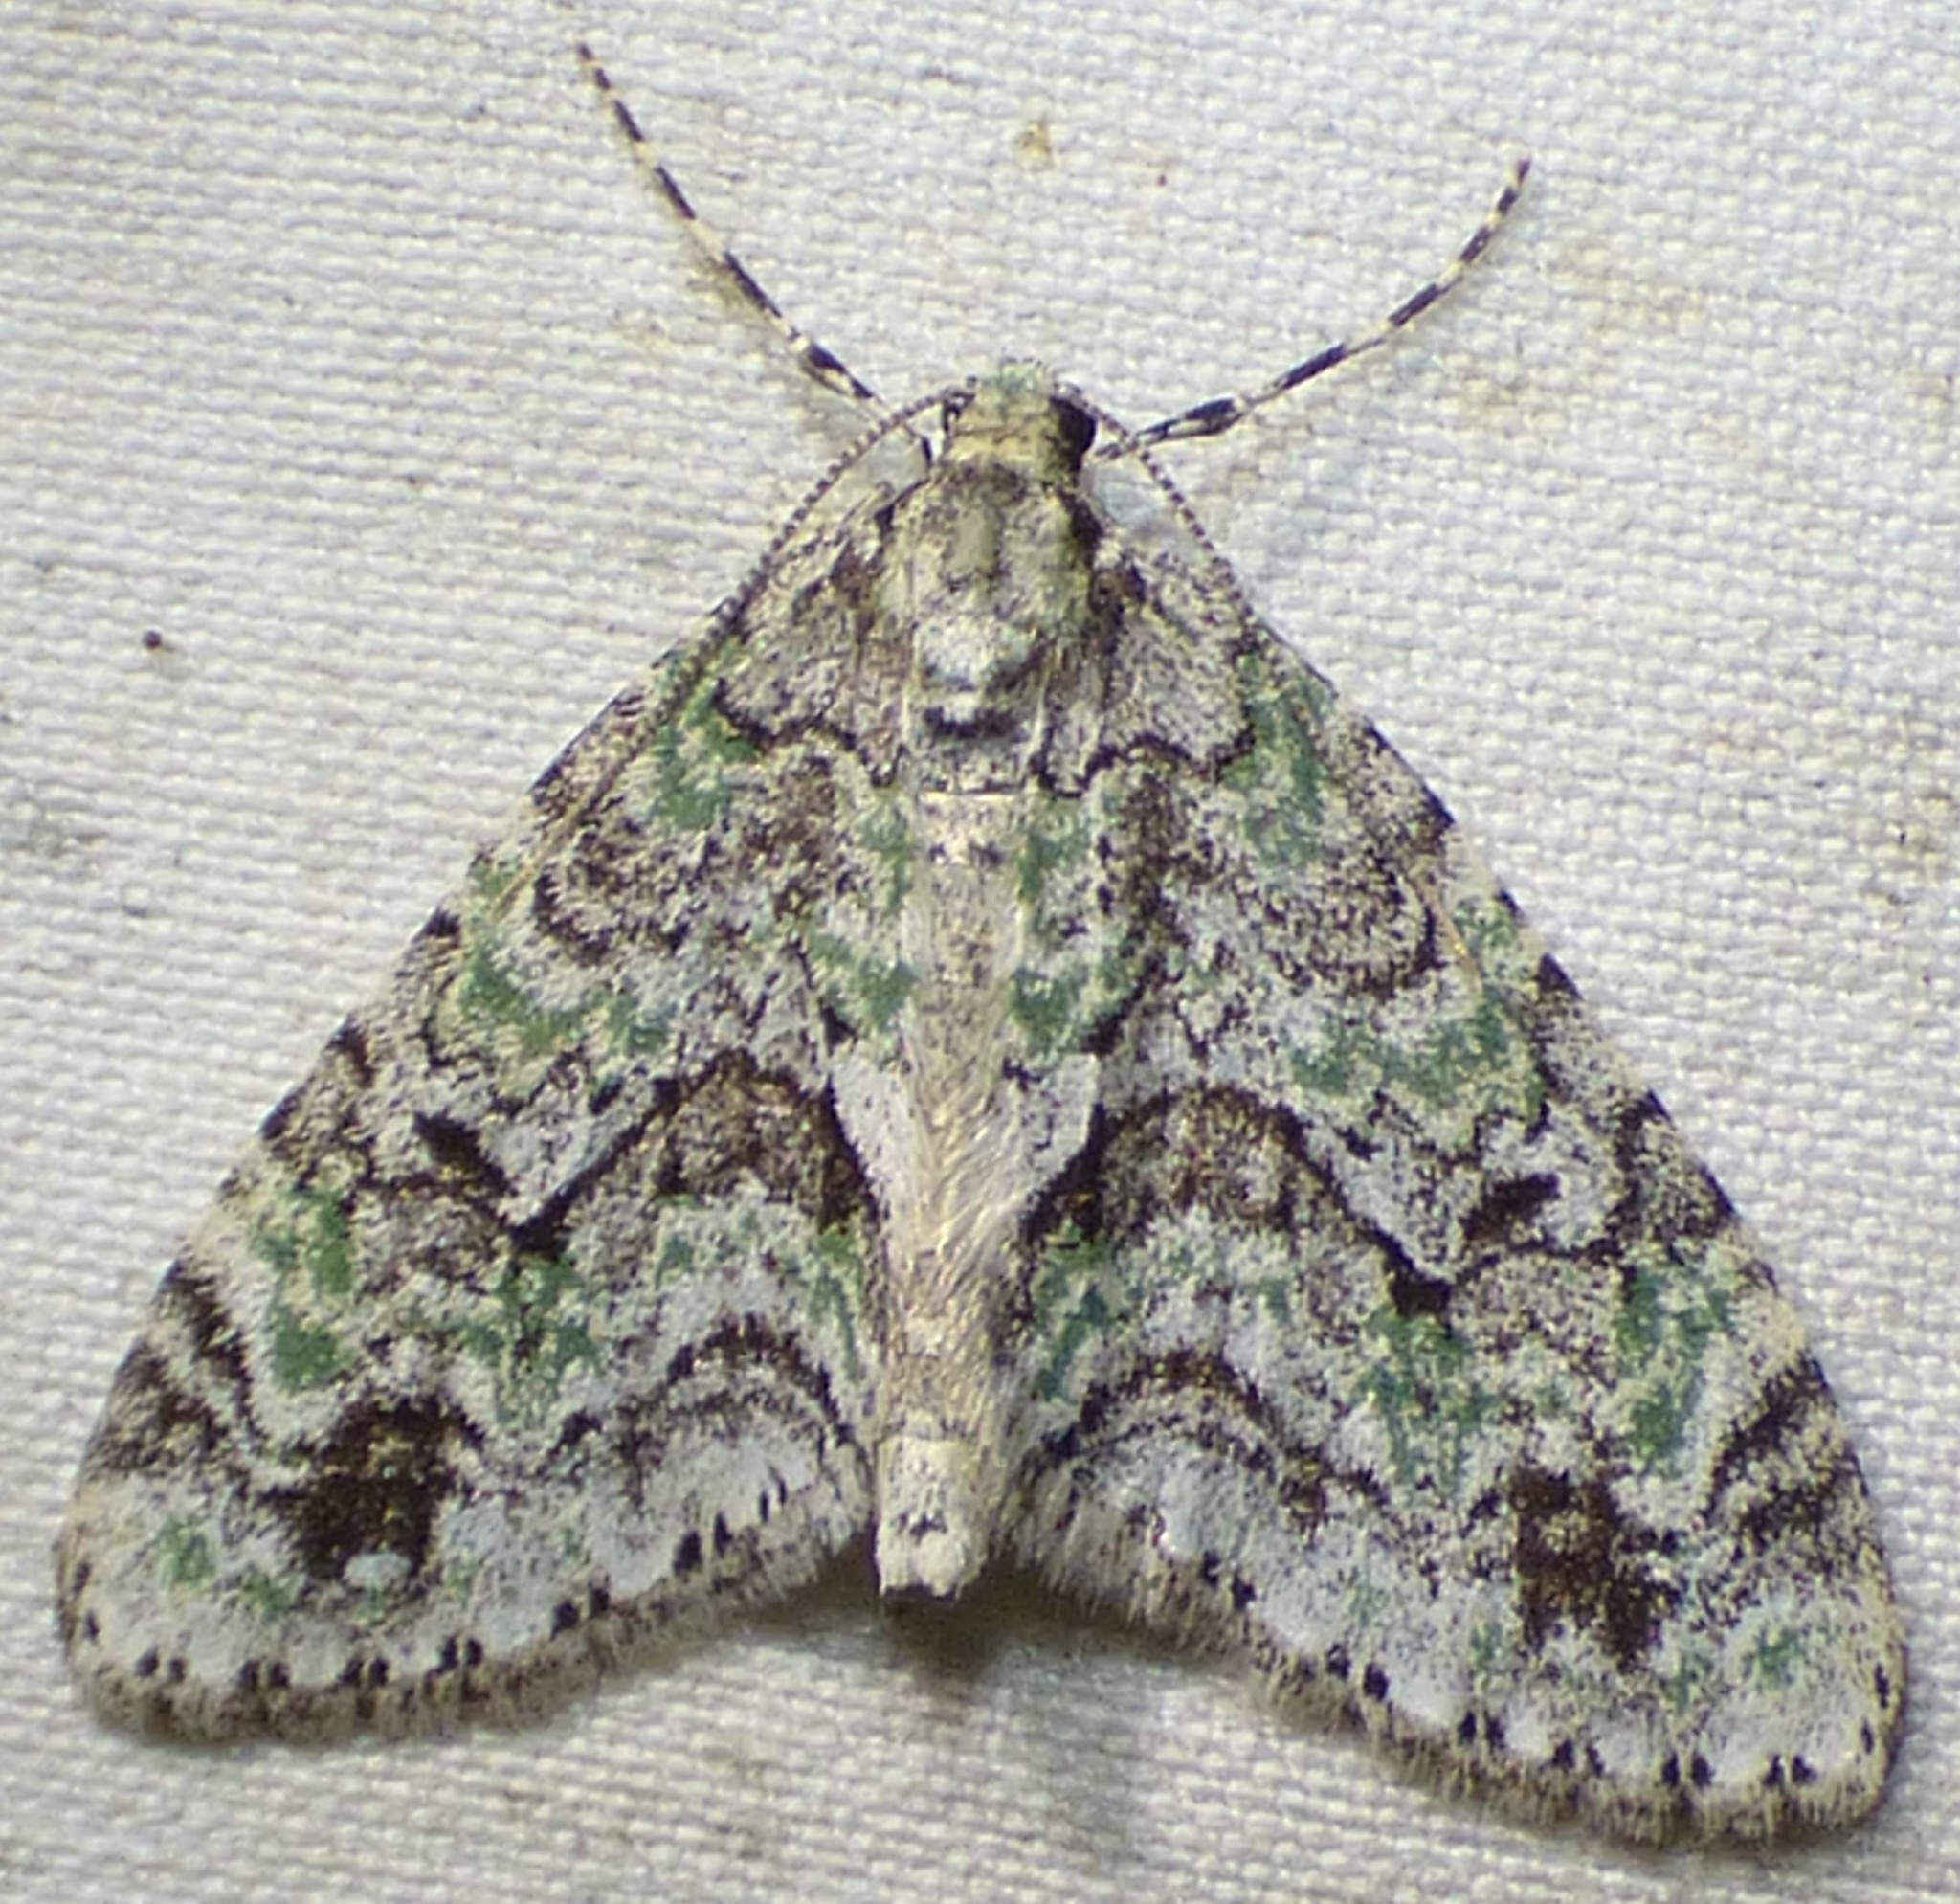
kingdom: Animalia
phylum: Arthropoda
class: Insecta
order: Lepidoptera
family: Geometridae
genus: Cladara
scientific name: Cladara limitaria
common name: Mottled gray carpet
